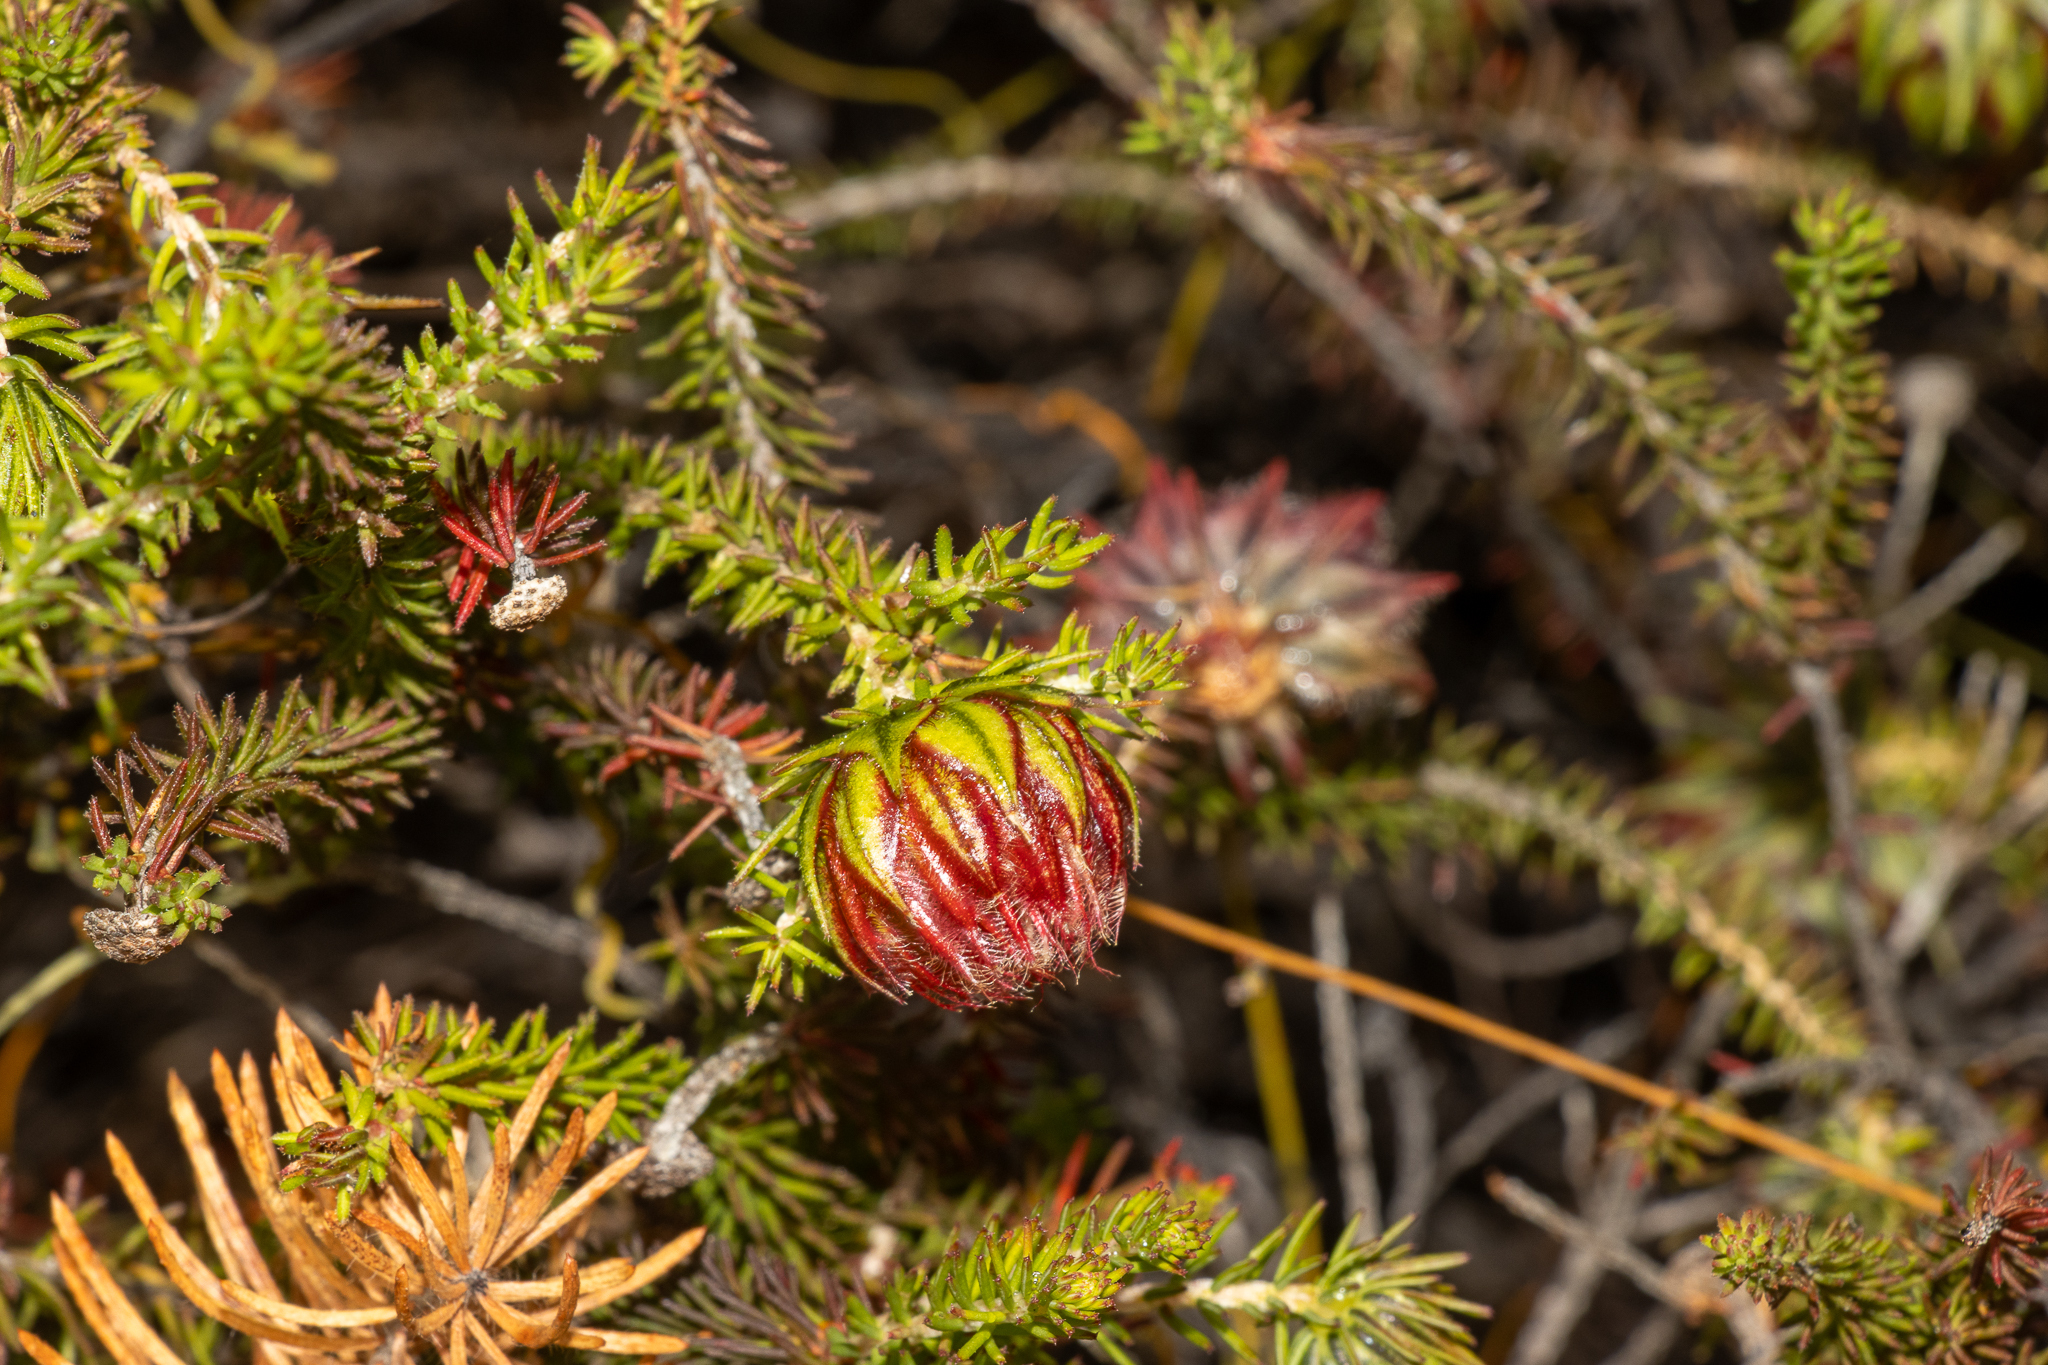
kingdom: Plantae
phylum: Tracheophyta
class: Magnoliopsida
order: Myrtales
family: Myrtaceae
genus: Darwinia
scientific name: Darwinia neildiana
